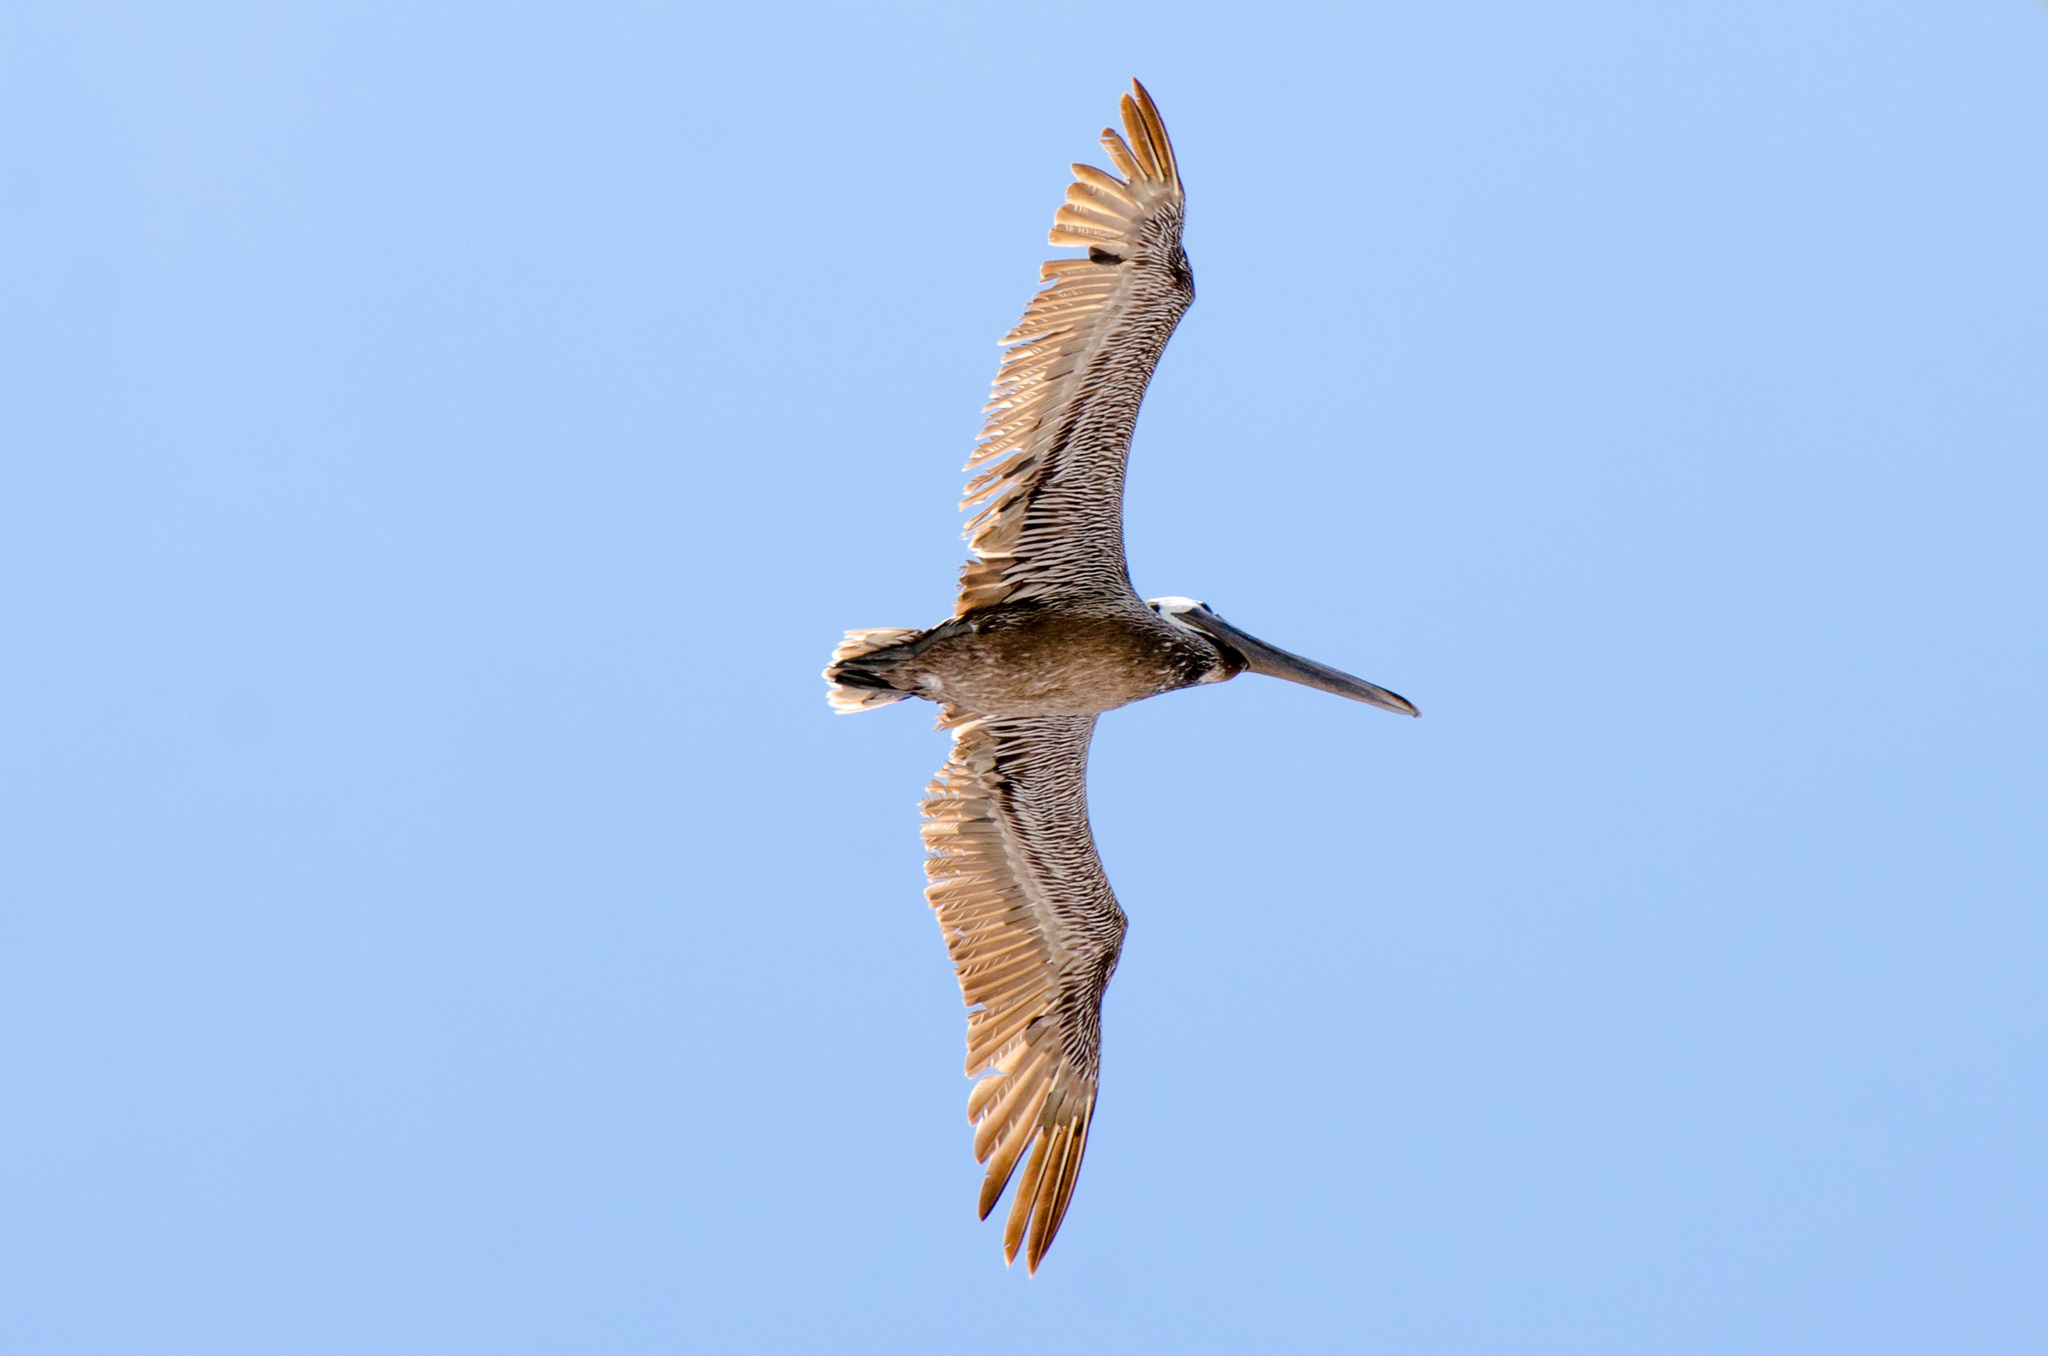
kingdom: Animalia
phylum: Chordata
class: Aves
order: Pelecaniformes
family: Pelecanidae
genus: Pelecanus
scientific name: Pelecanus occidentalis
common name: Brown pelican
